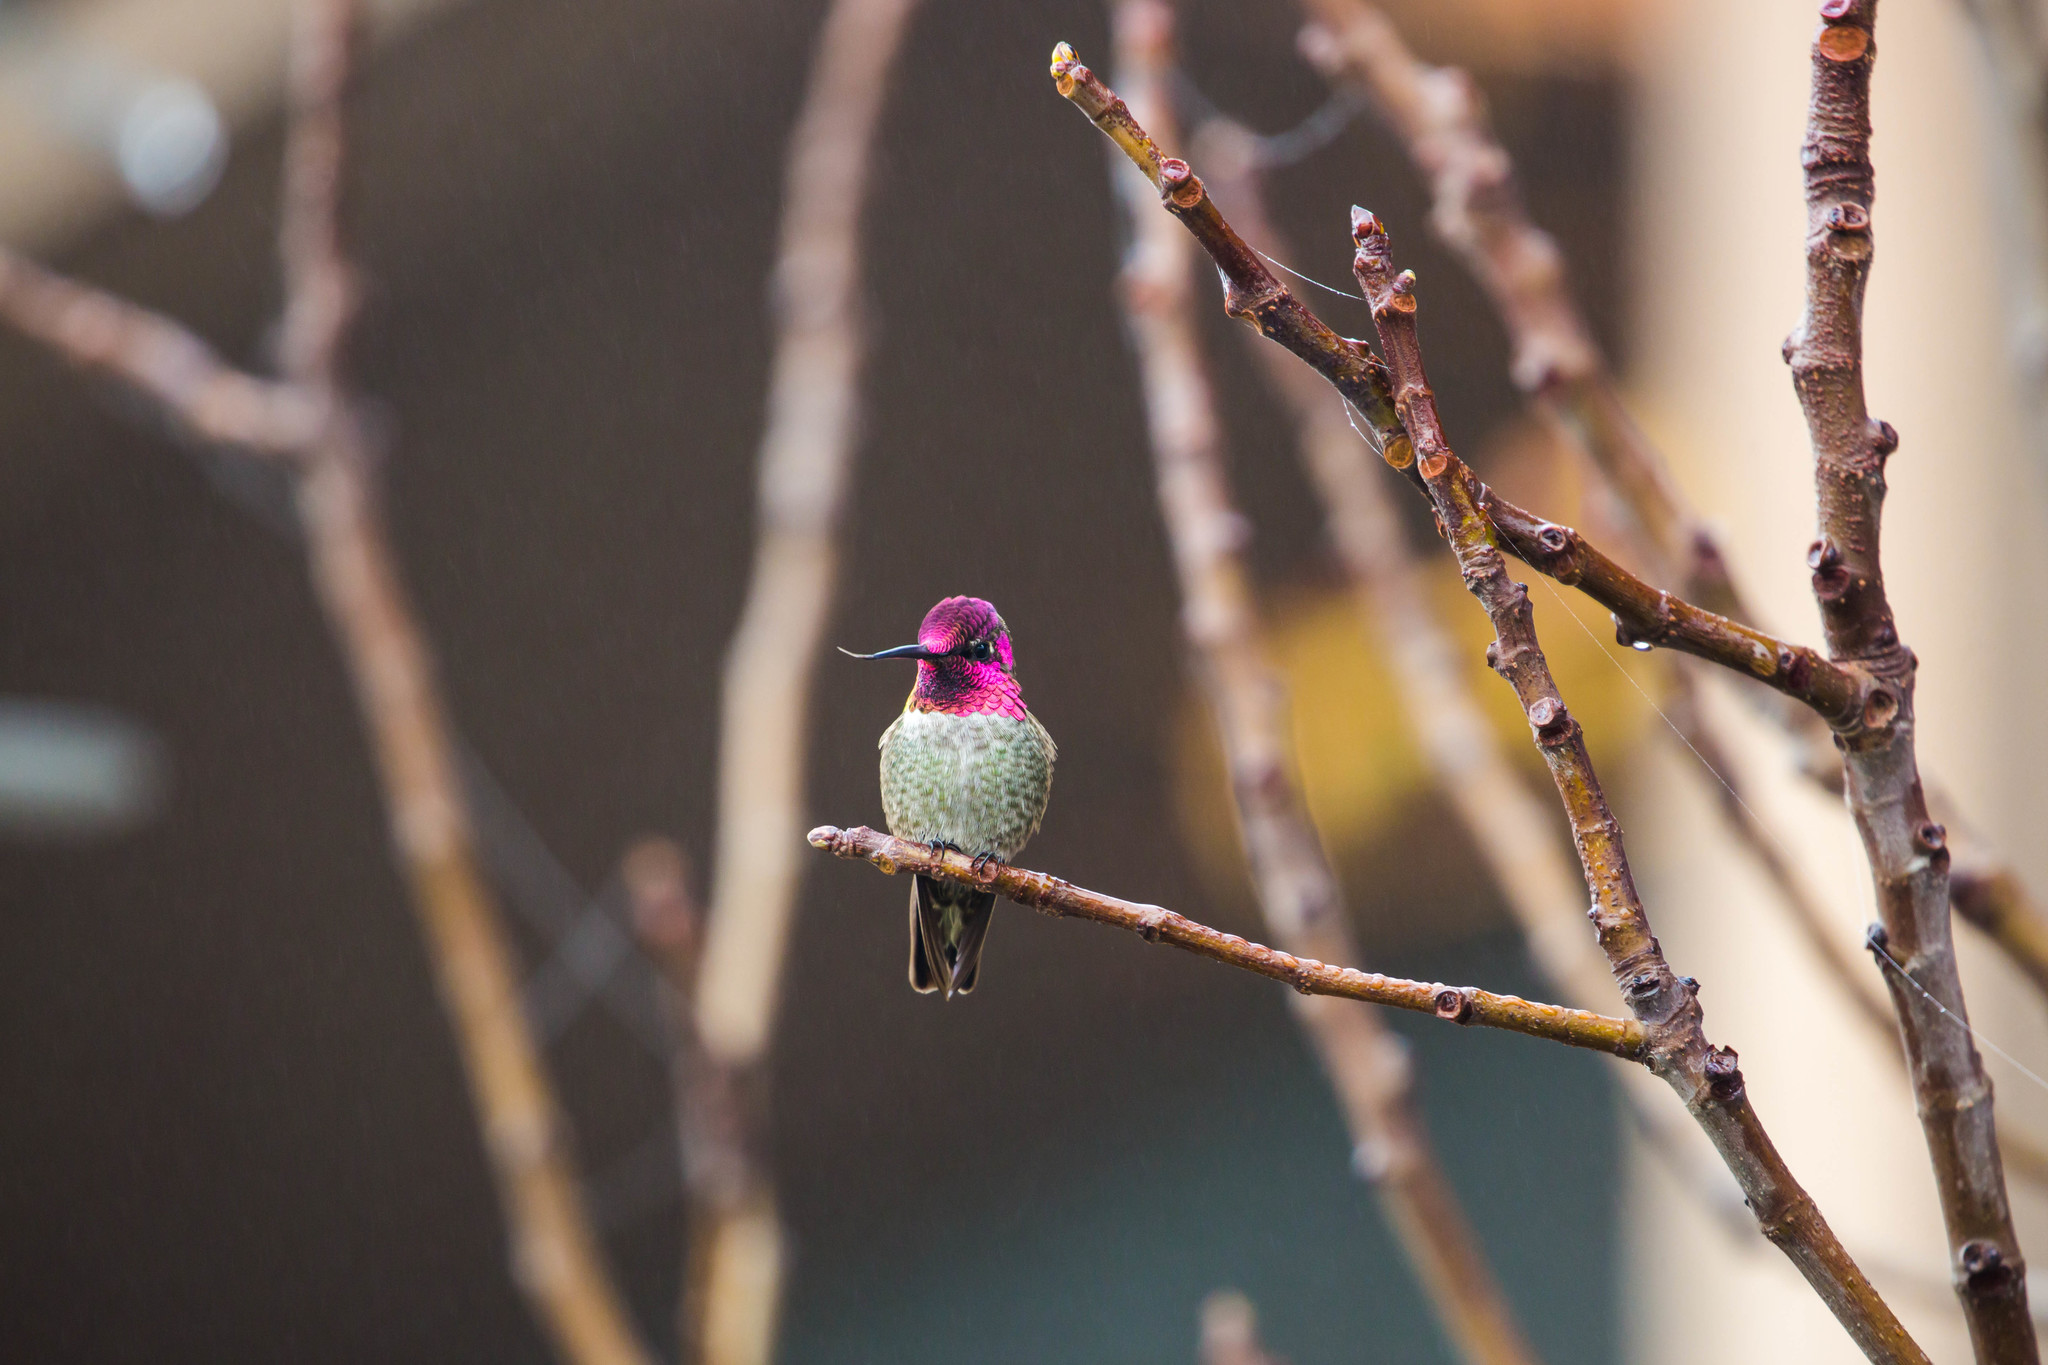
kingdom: Animalia
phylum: Chordata
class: Aves
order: Apodiformes
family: Trochilidae
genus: Calypte
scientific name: Calypte anna
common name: Anna's hummingbird
